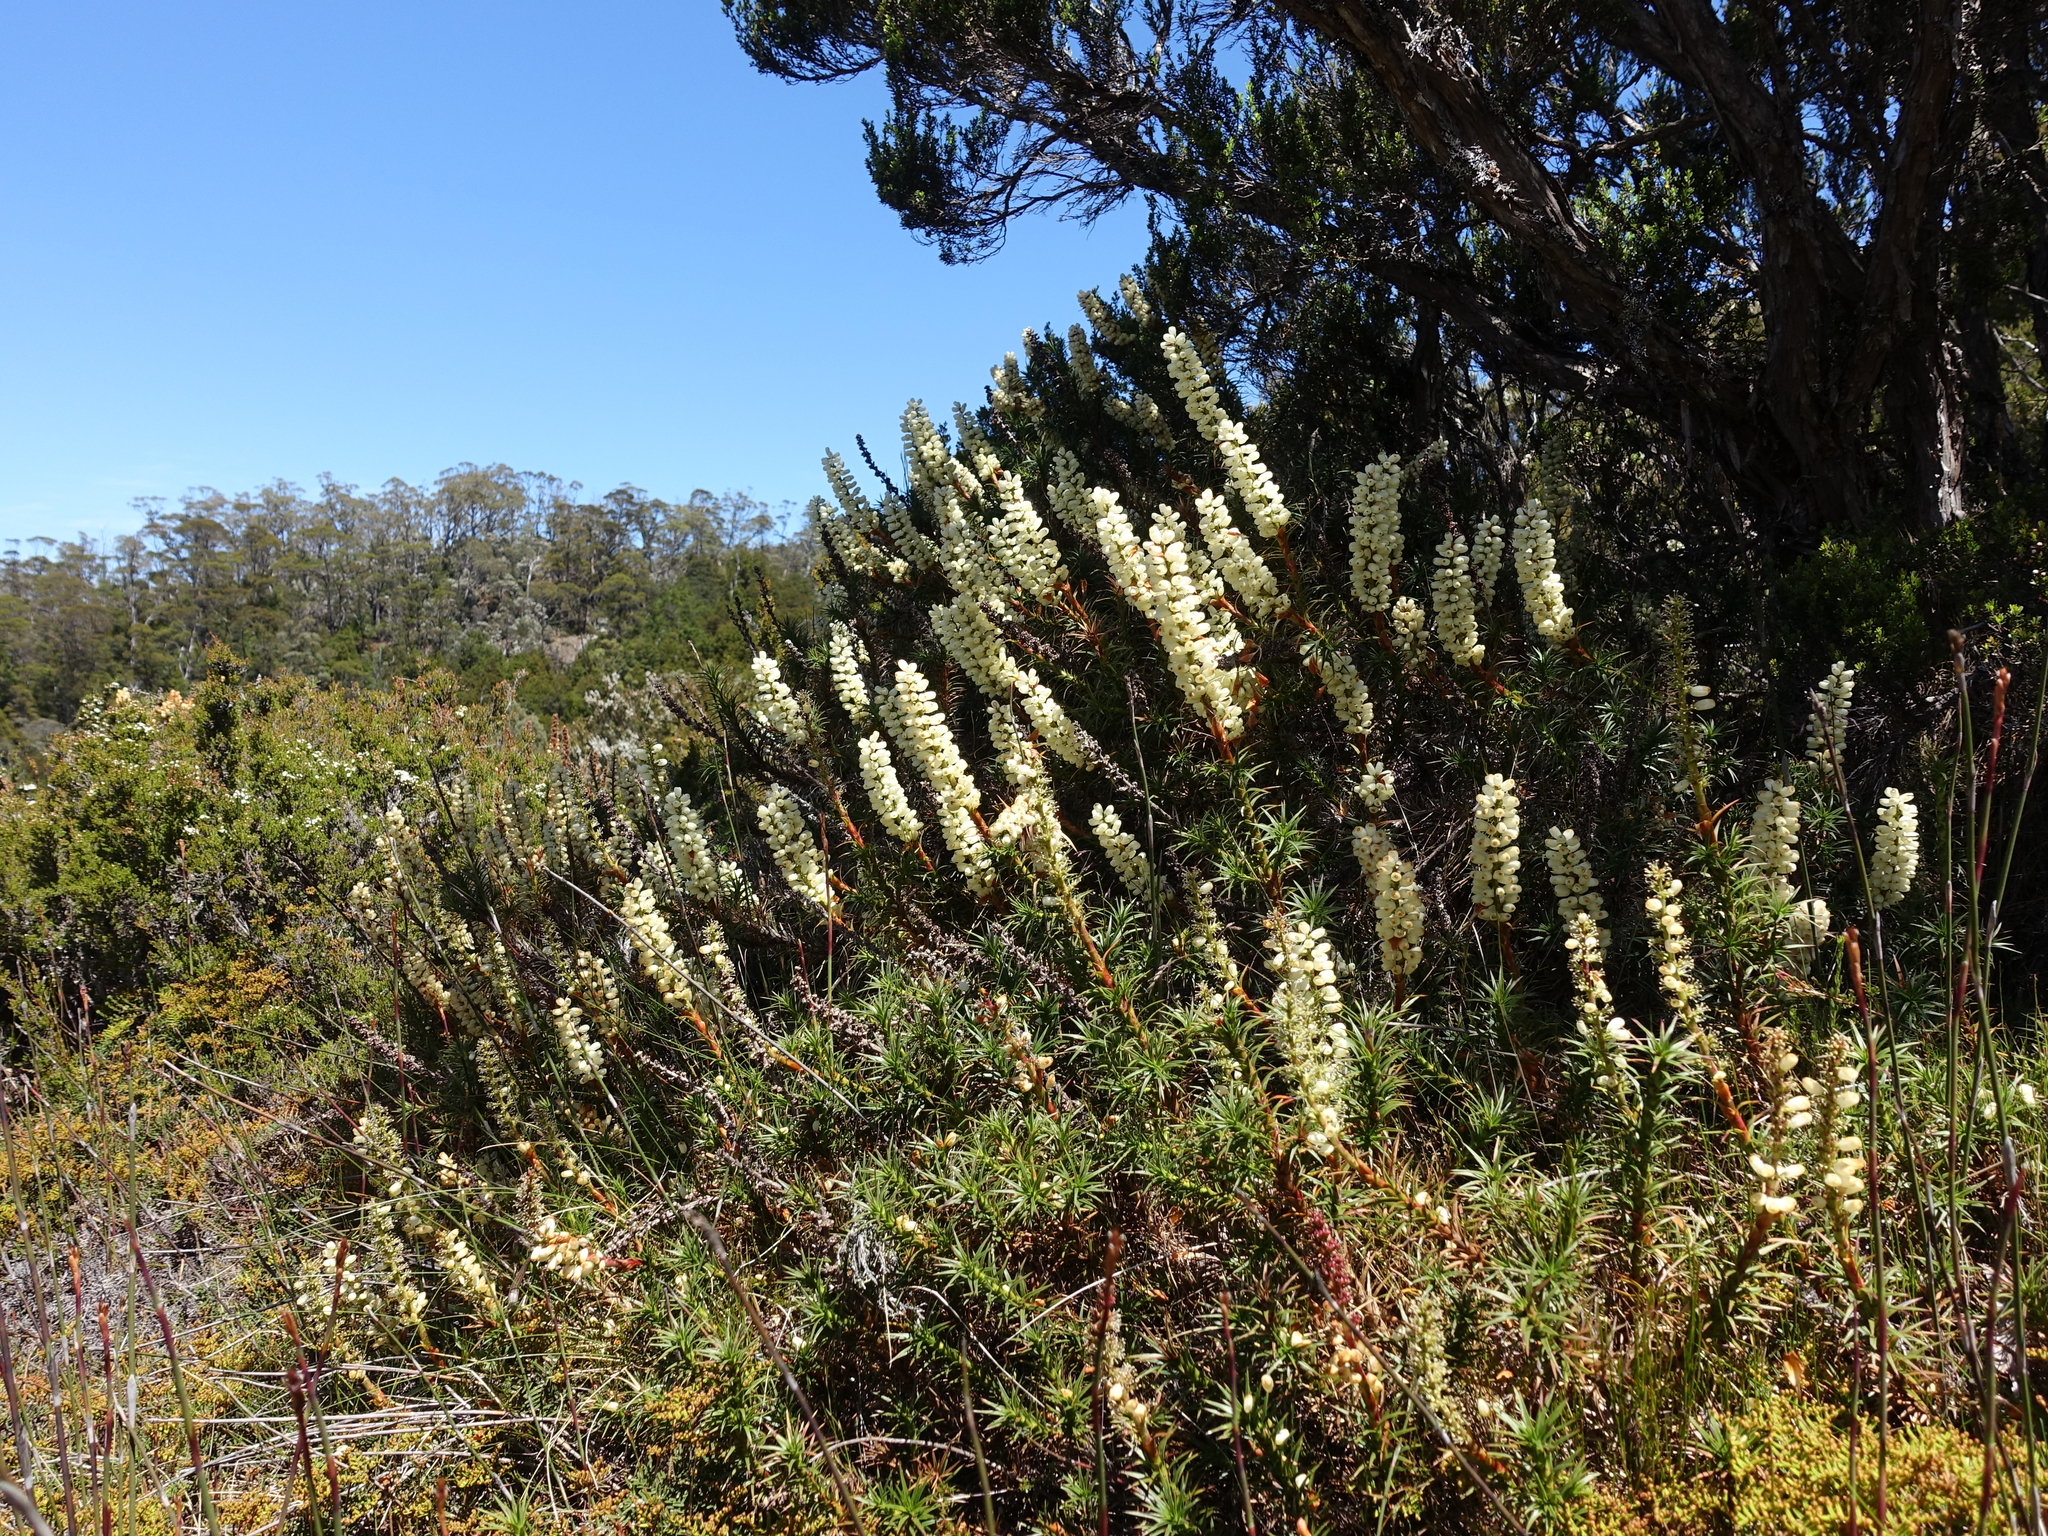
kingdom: Plantae
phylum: Tracheophyta
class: Magnoliopsida
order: Ericales
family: Ericaceae
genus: Dracophyllum
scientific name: Dracophyllum persistentifolium
